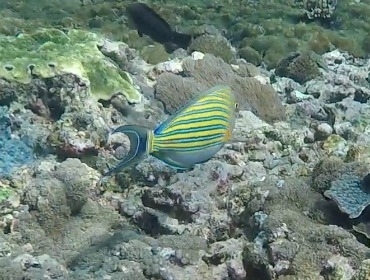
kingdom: Animalia
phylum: Chordata
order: Perciformes
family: Acanthuridae
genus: Acanthurus
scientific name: Acanthurus lineatus
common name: Striped surgeonfish
